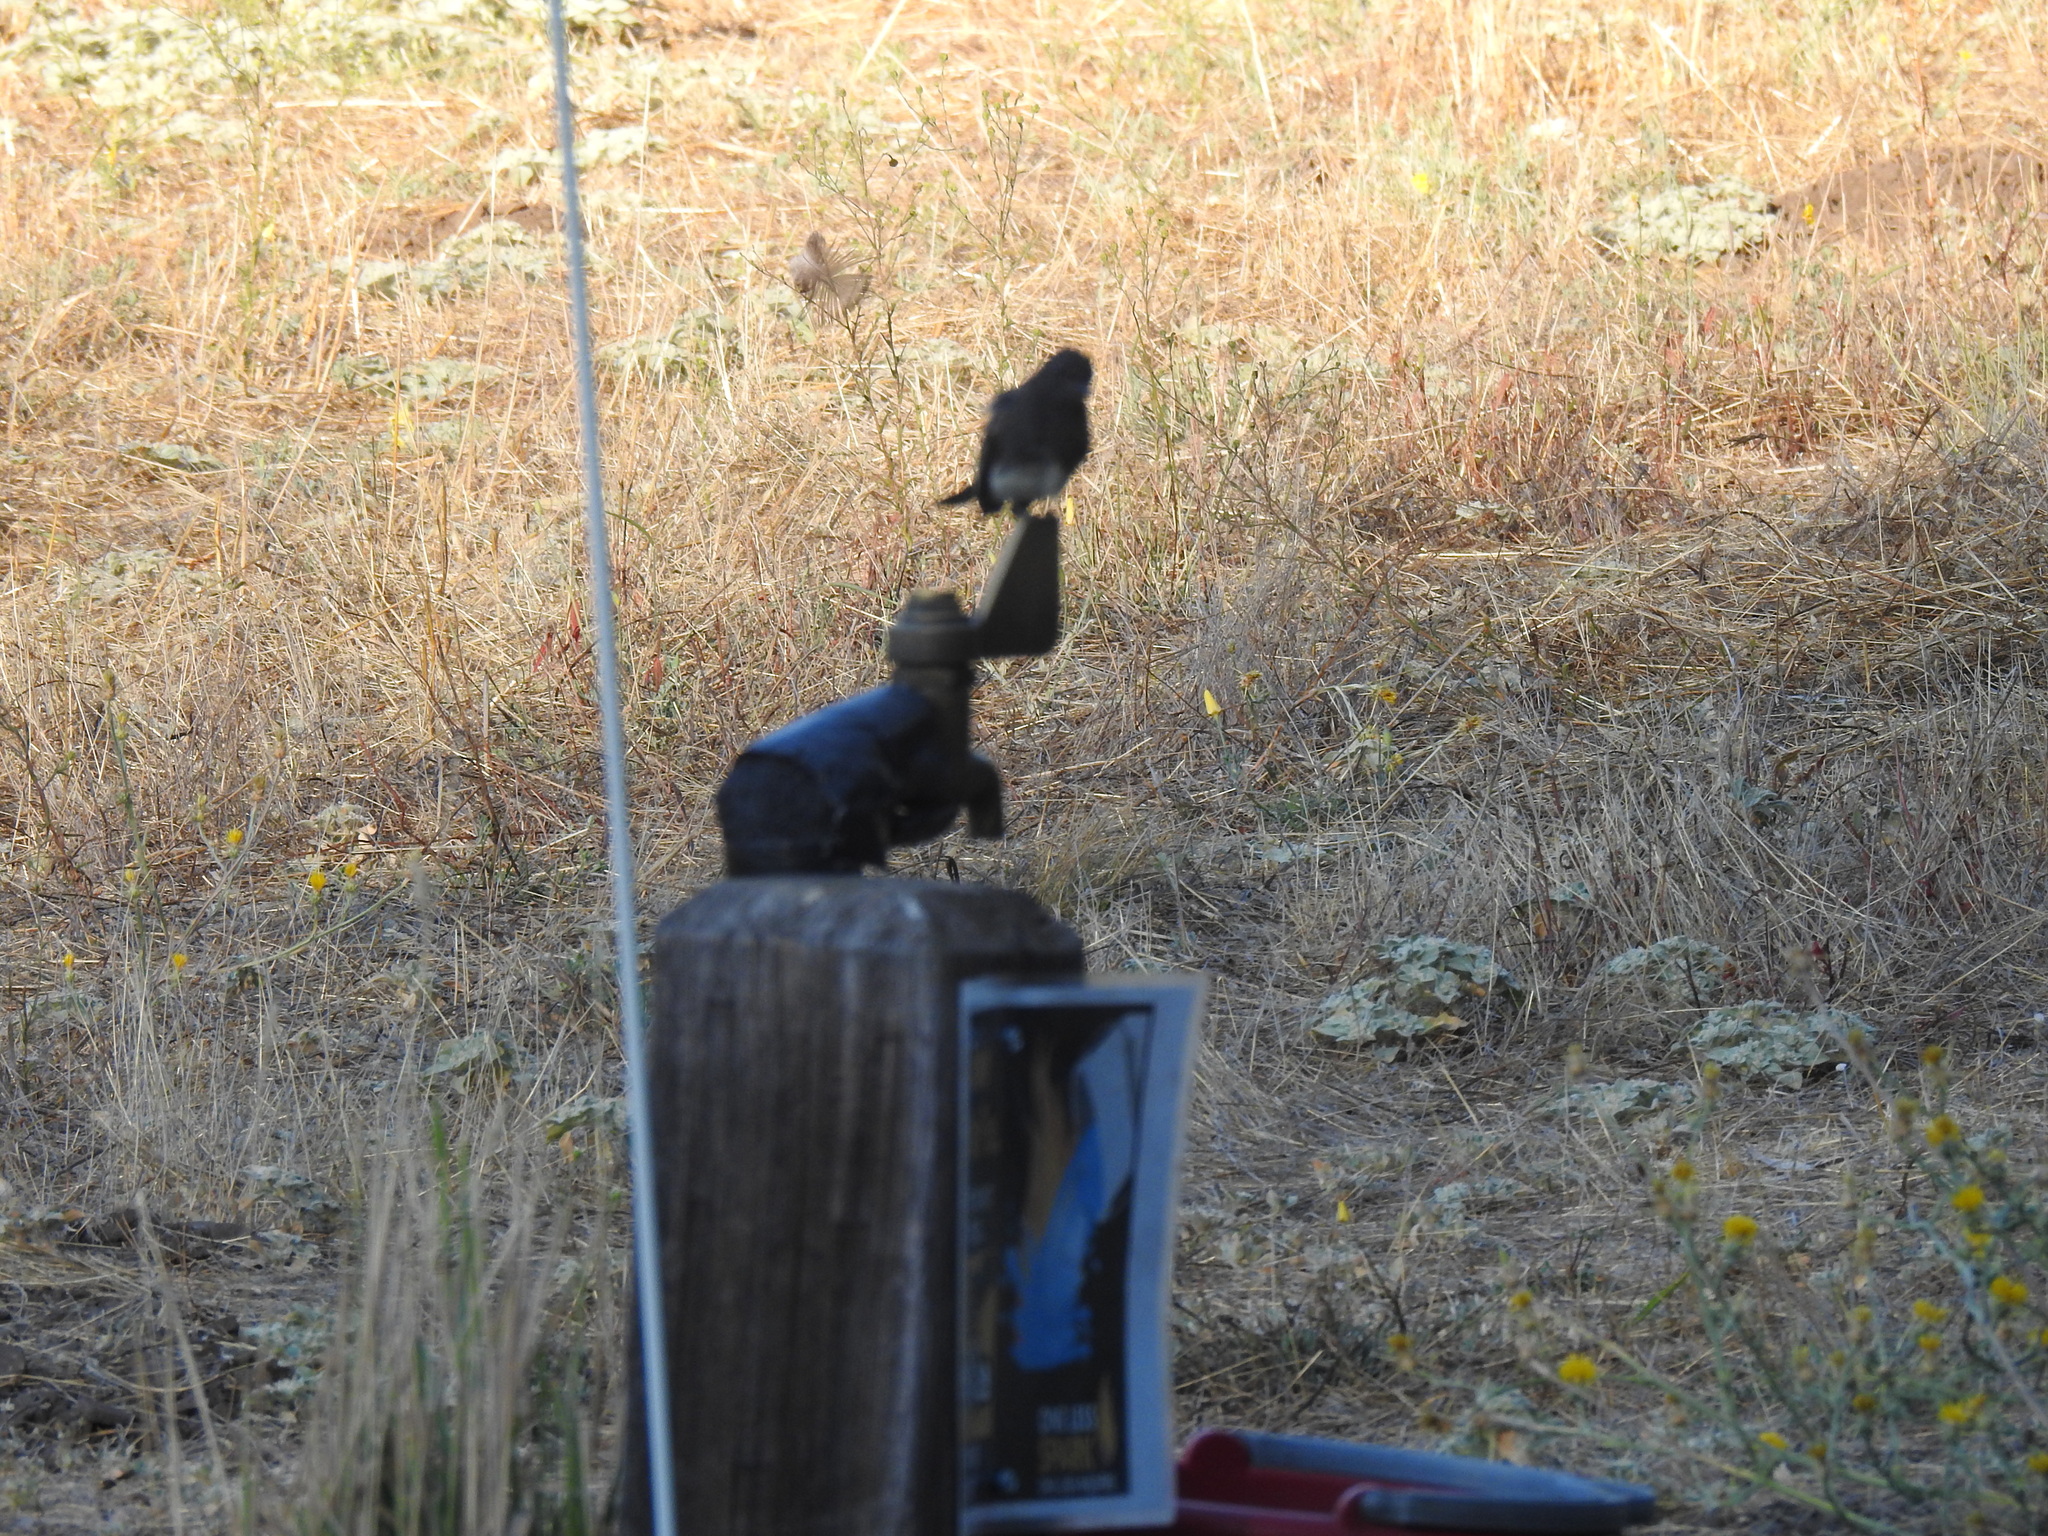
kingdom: Animalia
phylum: Chordata
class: Aves
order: Passeriformes
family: Tyrannidae
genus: Sayornis
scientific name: Sayornis nigricans
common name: Black phoebe
